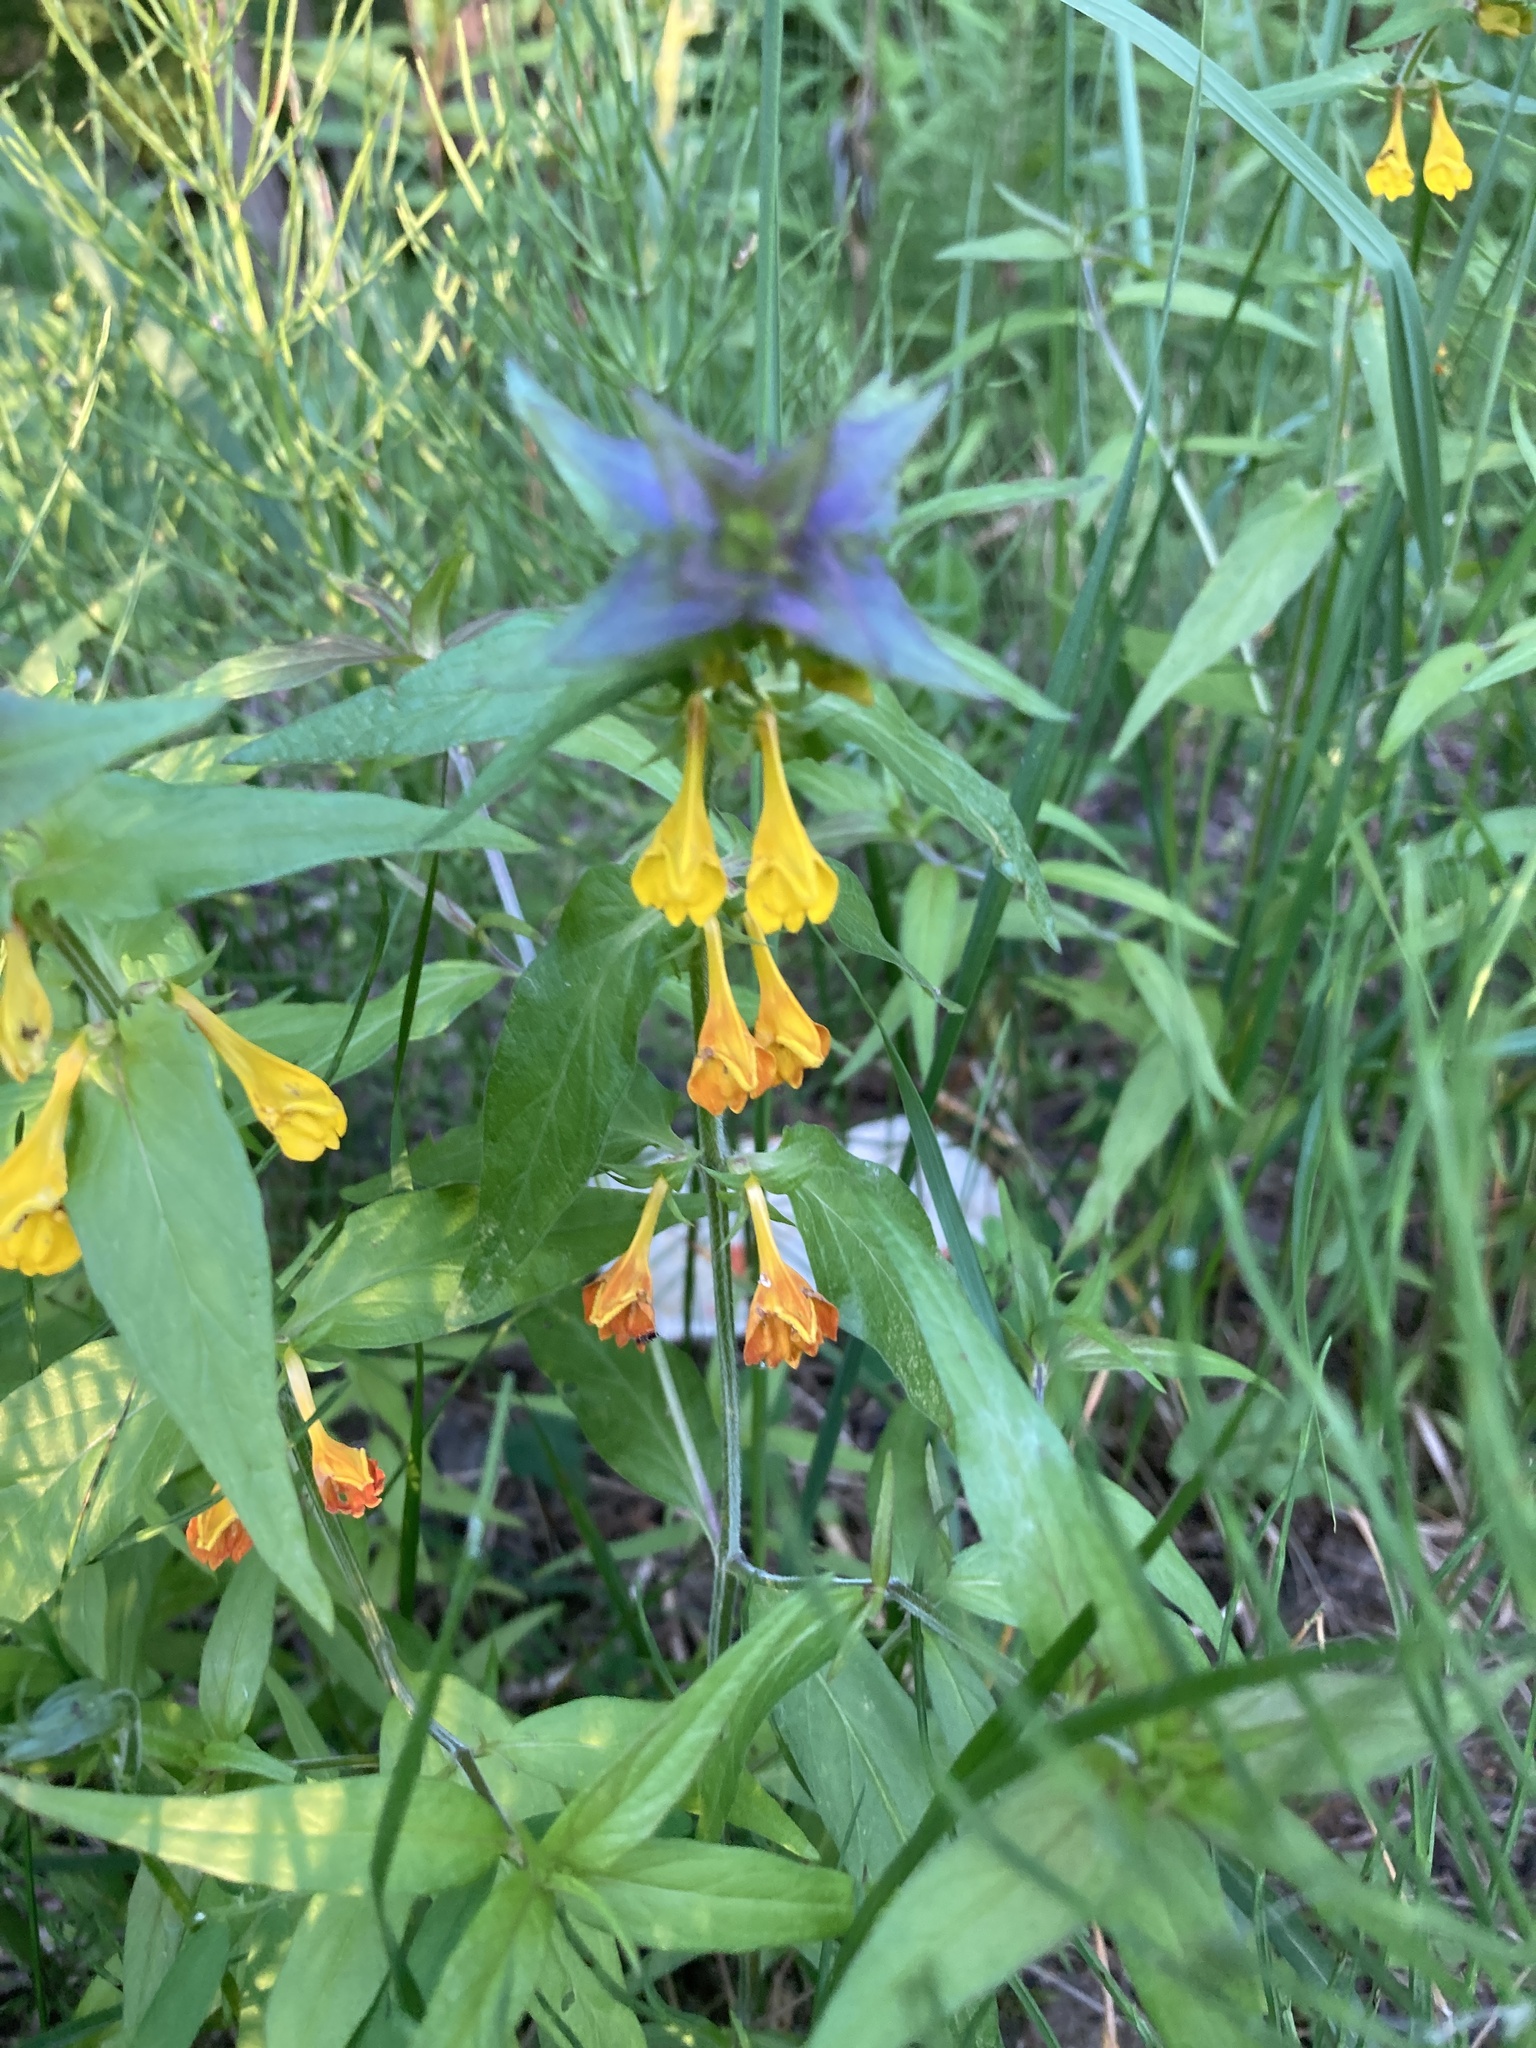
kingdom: Plantae
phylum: Tracheophyta
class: Magnoliopsida
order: Lamiales
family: Orobanchaceae
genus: Melampyrum
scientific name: Melampyrum nemorosum
